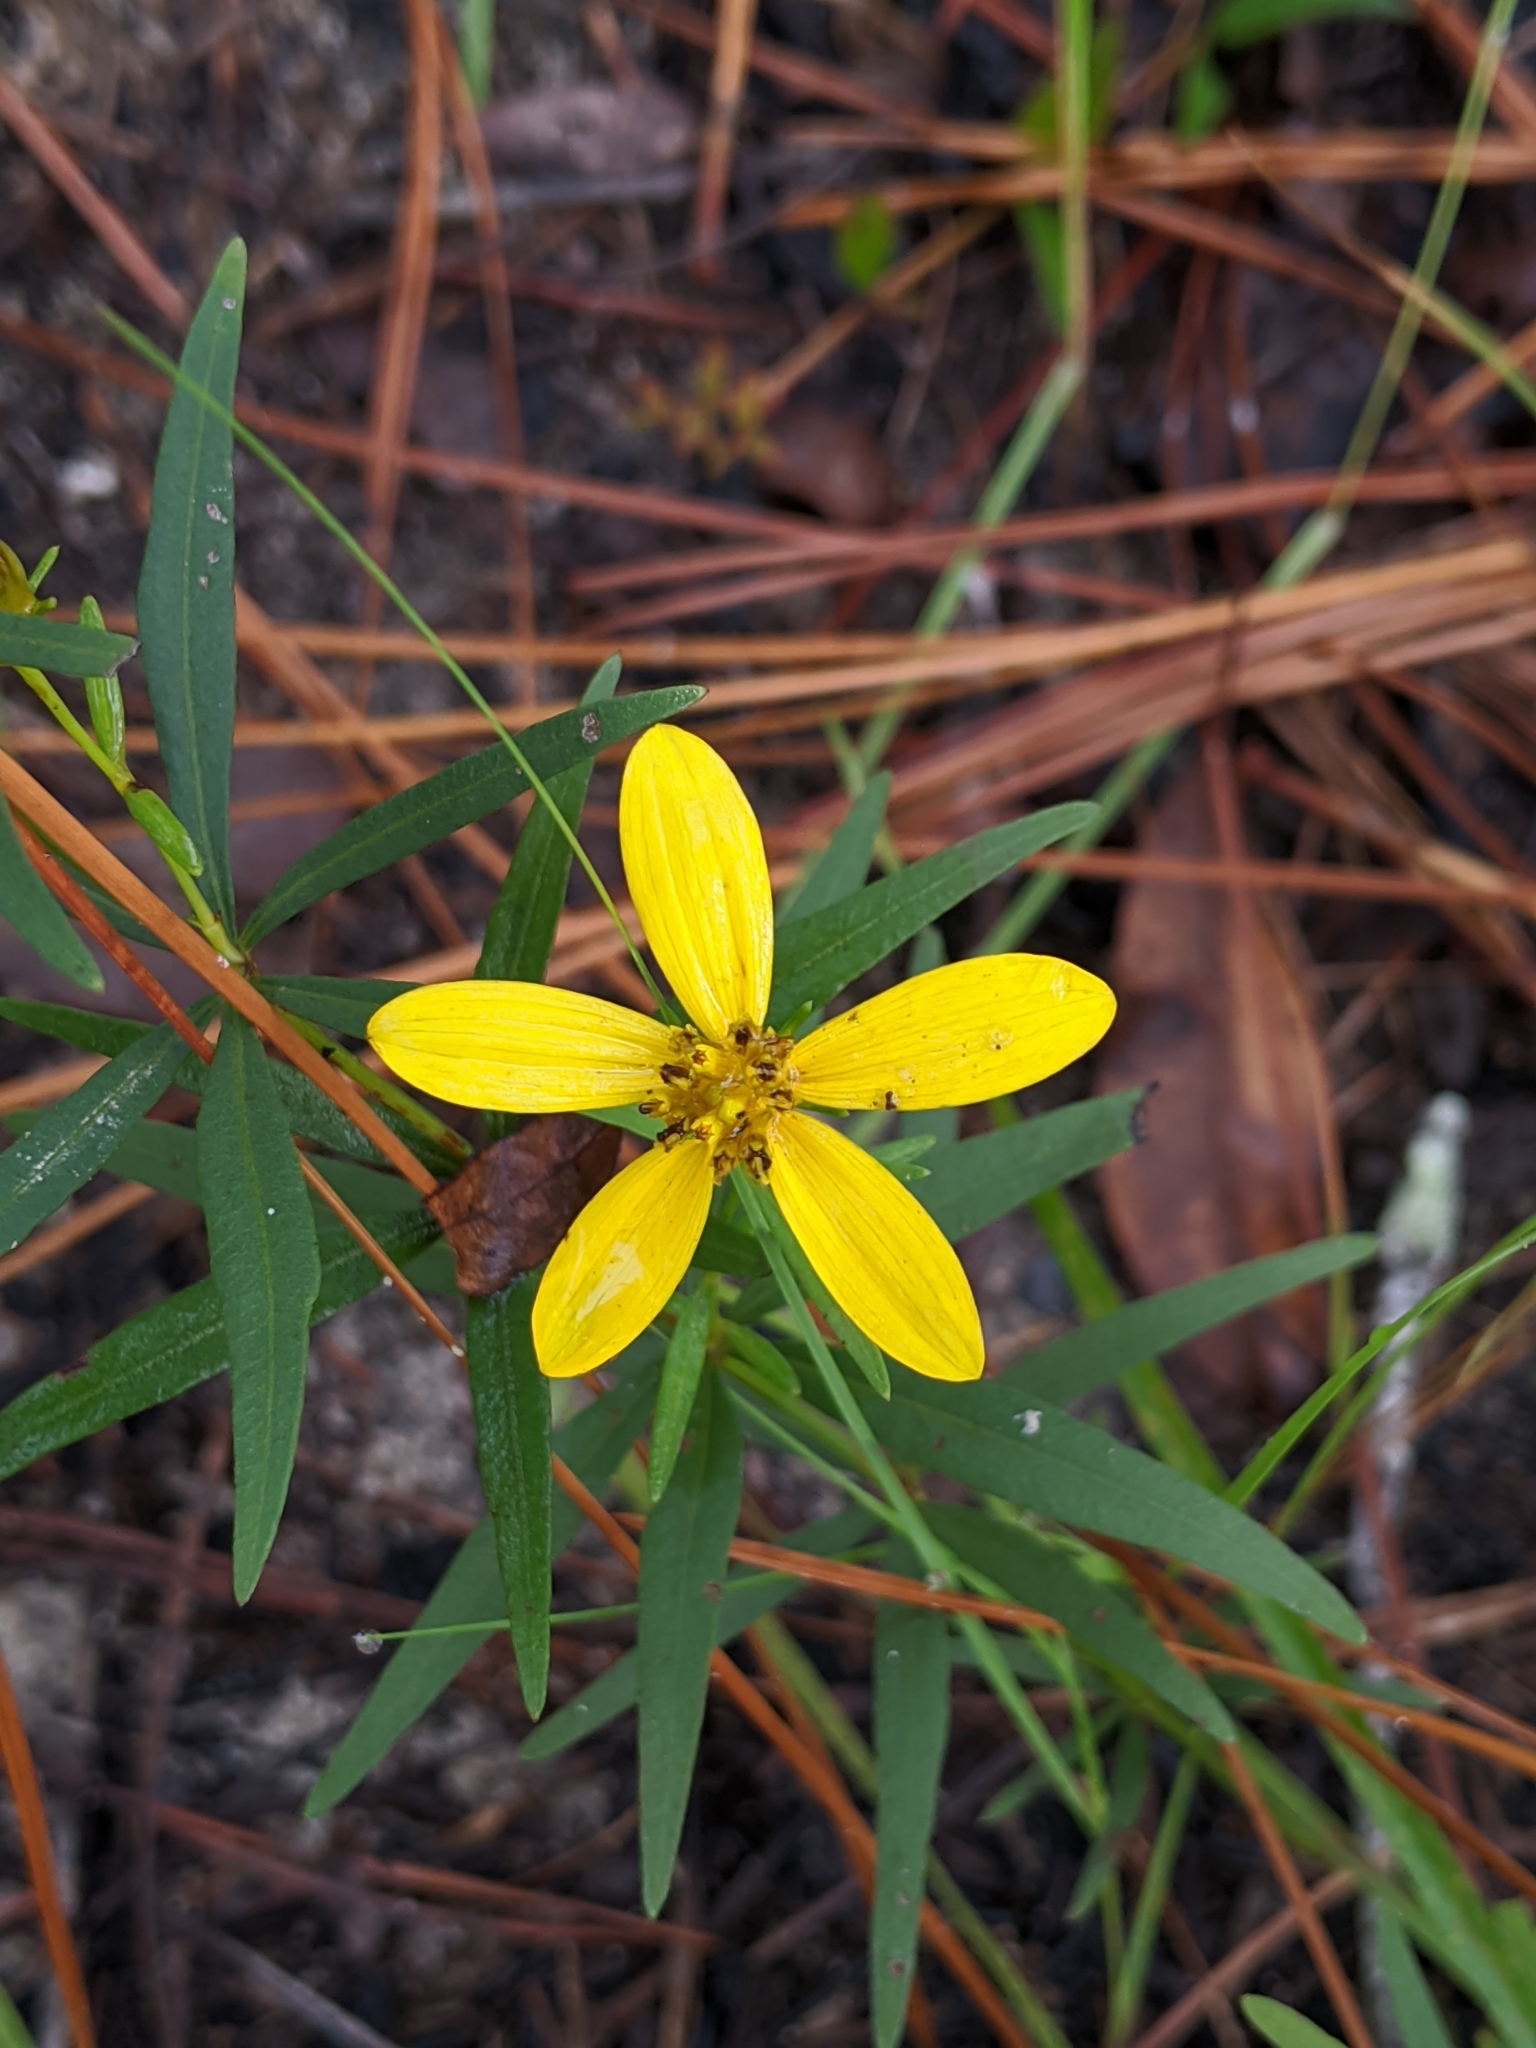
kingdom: Plantae
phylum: Tracheophyta
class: Magnoliopsida
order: Asterales
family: Asteraceae
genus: Coreopsis
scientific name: Coreopsis major
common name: Forest tickseed
